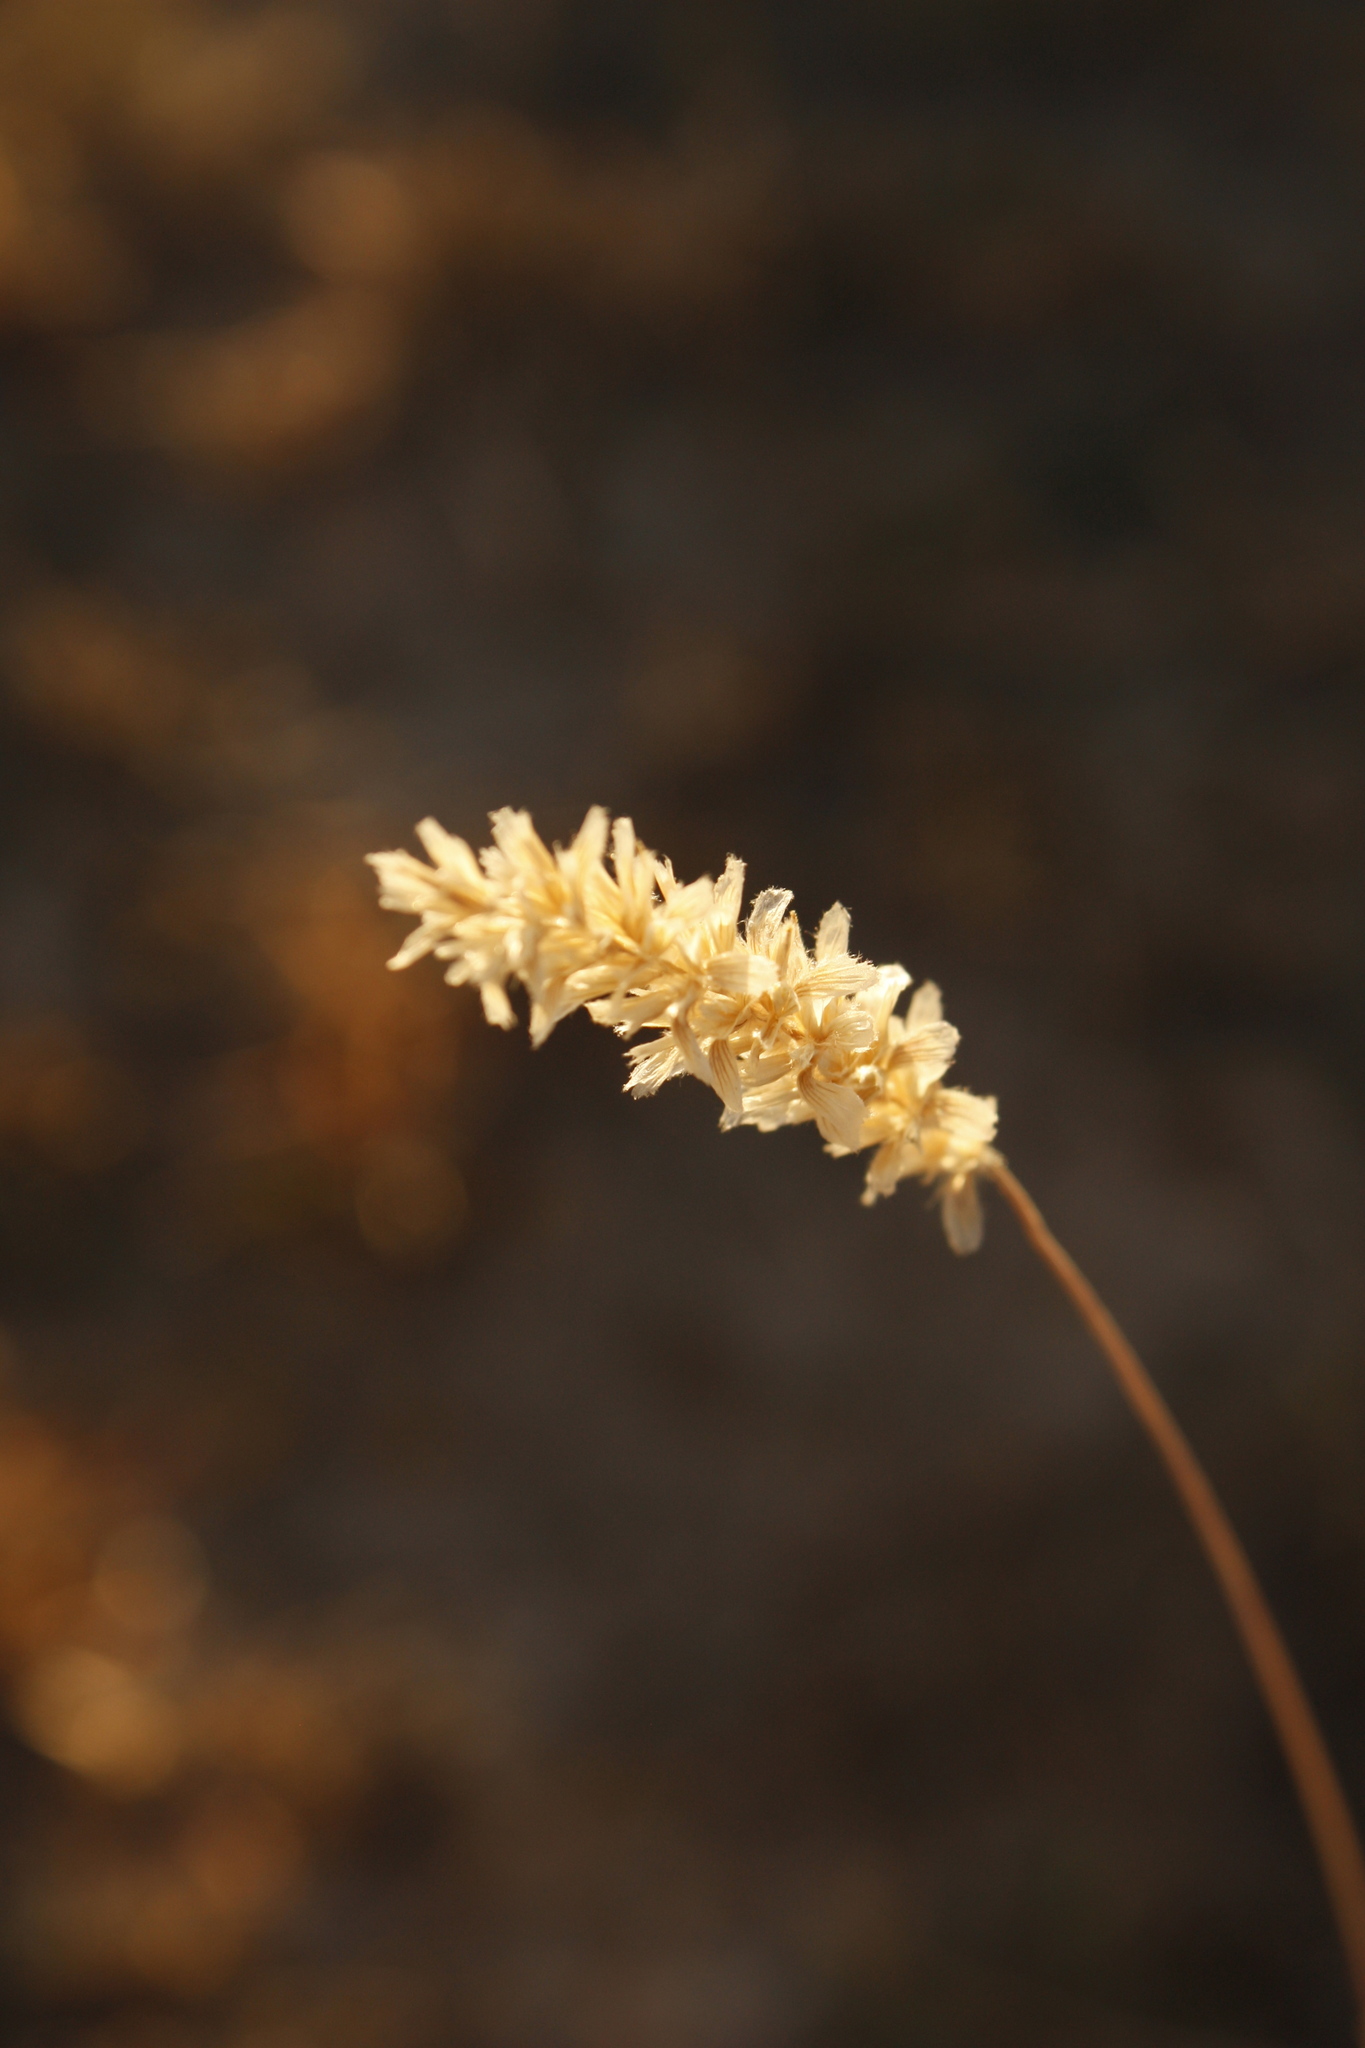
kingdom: Plantae
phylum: Tracheophyta
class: Liliopsida
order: Poales
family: Poaceae
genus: Hilaria
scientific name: Hilaria mutica
